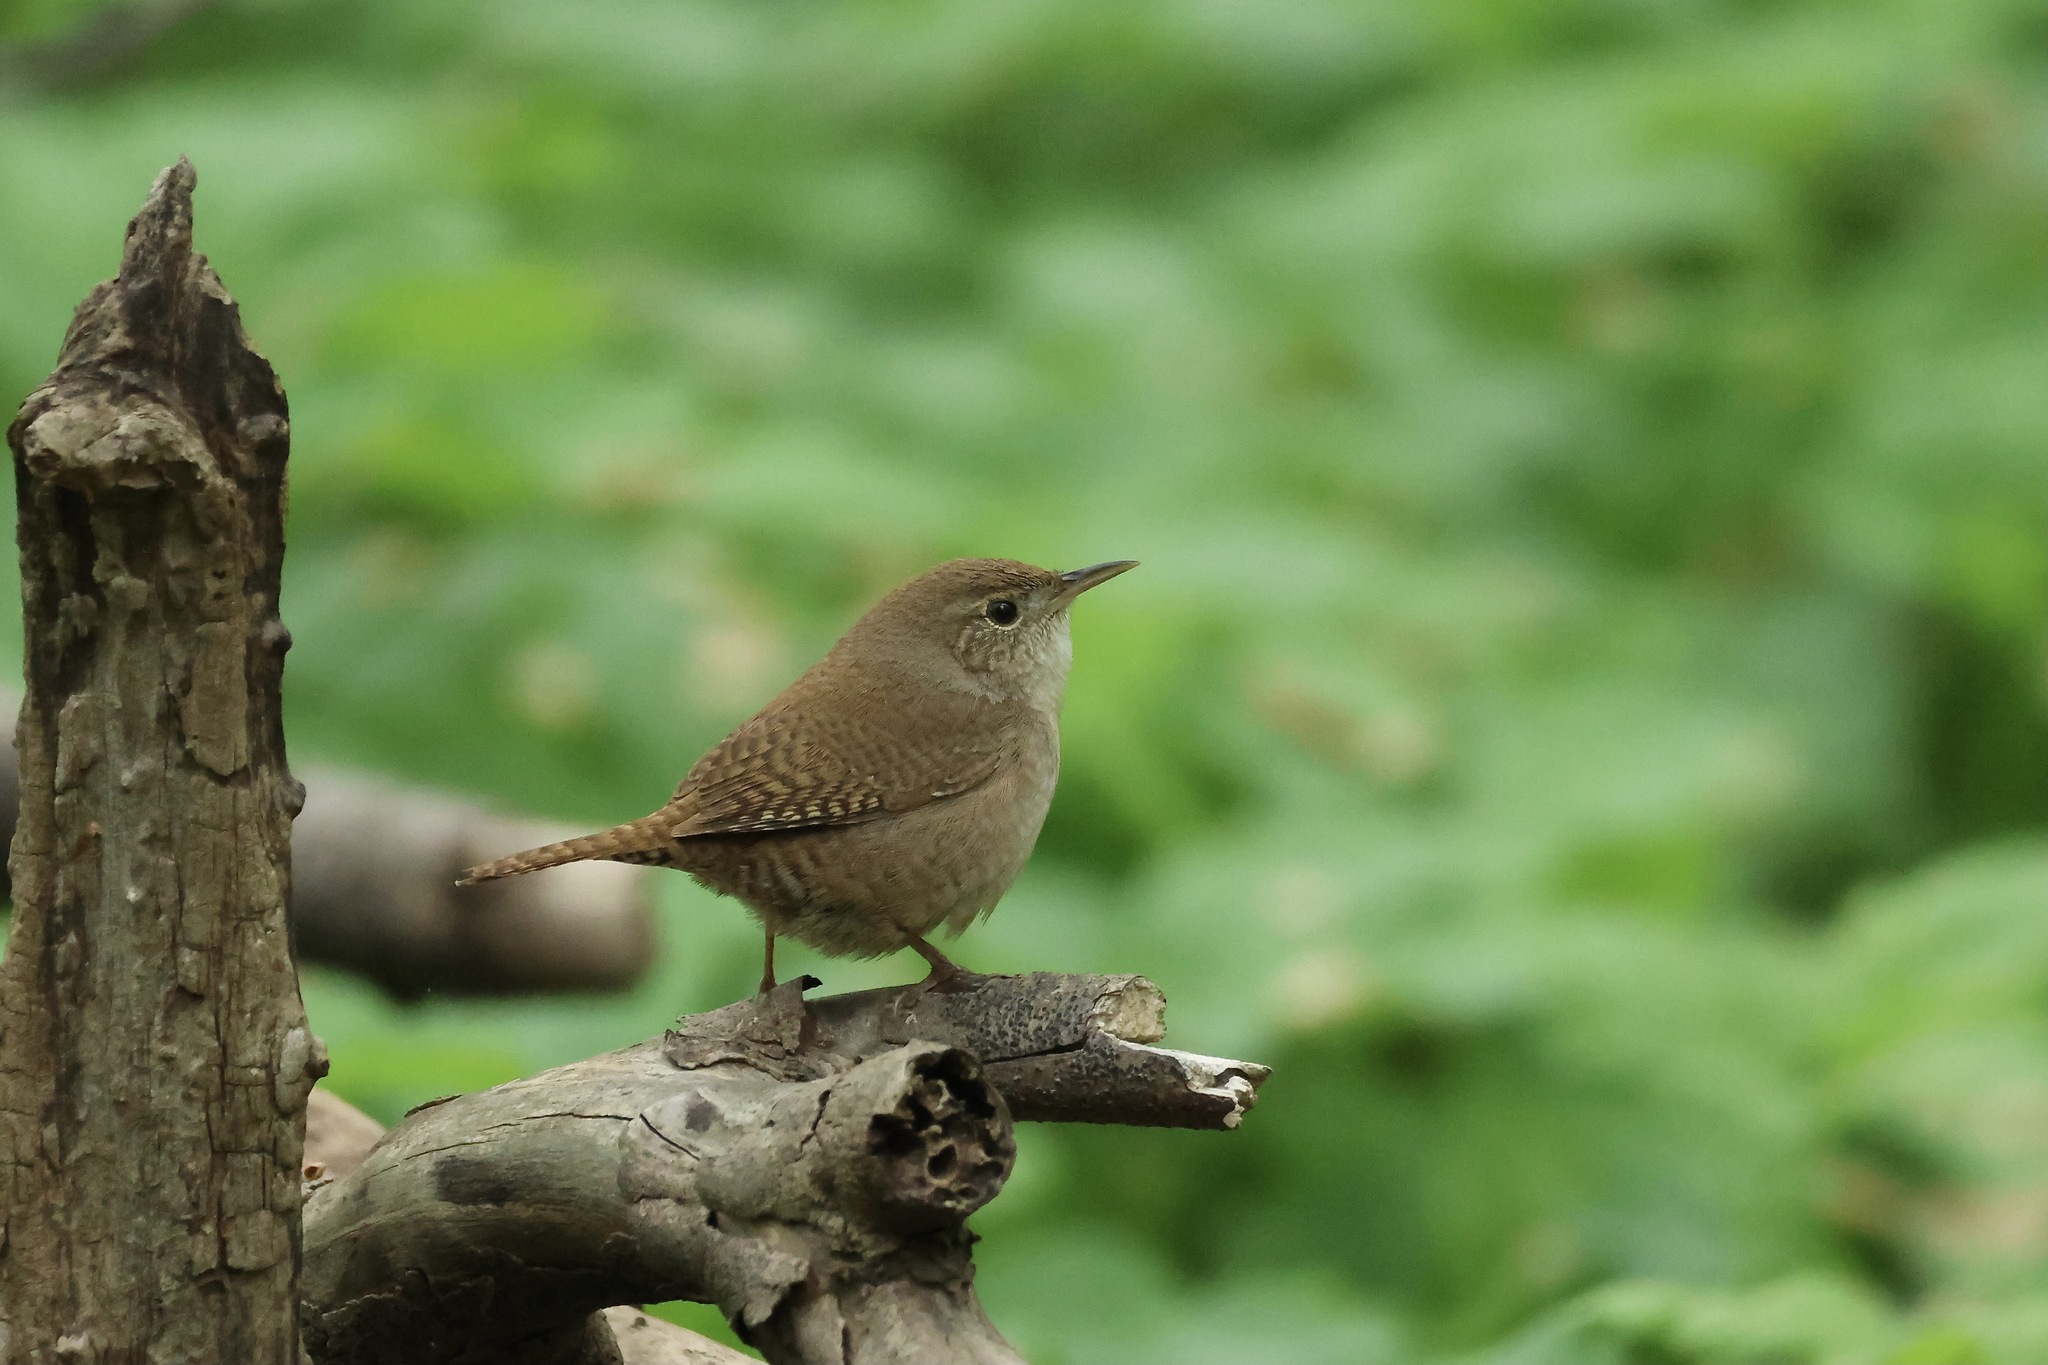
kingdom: Animalia
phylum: Chordata
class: Aves
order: Passeriformes
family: Troglodytidae
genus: Troglodytes
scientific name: Troglodytes aedon
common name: House wren
